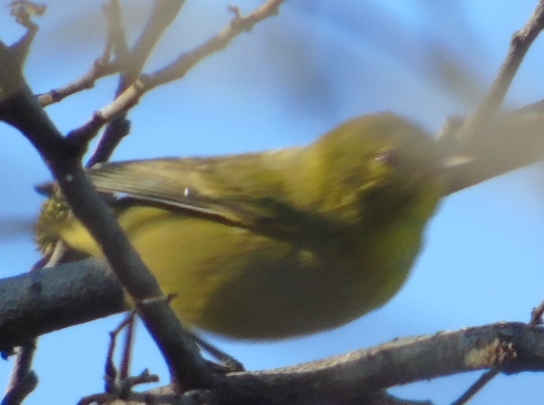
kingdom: Animalia
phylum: Chordata
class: Aves
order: Passeriformes
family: Parulidae
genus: Leiothlypis
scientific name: Leiothlypis celata
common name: Orange-crowned warbler
